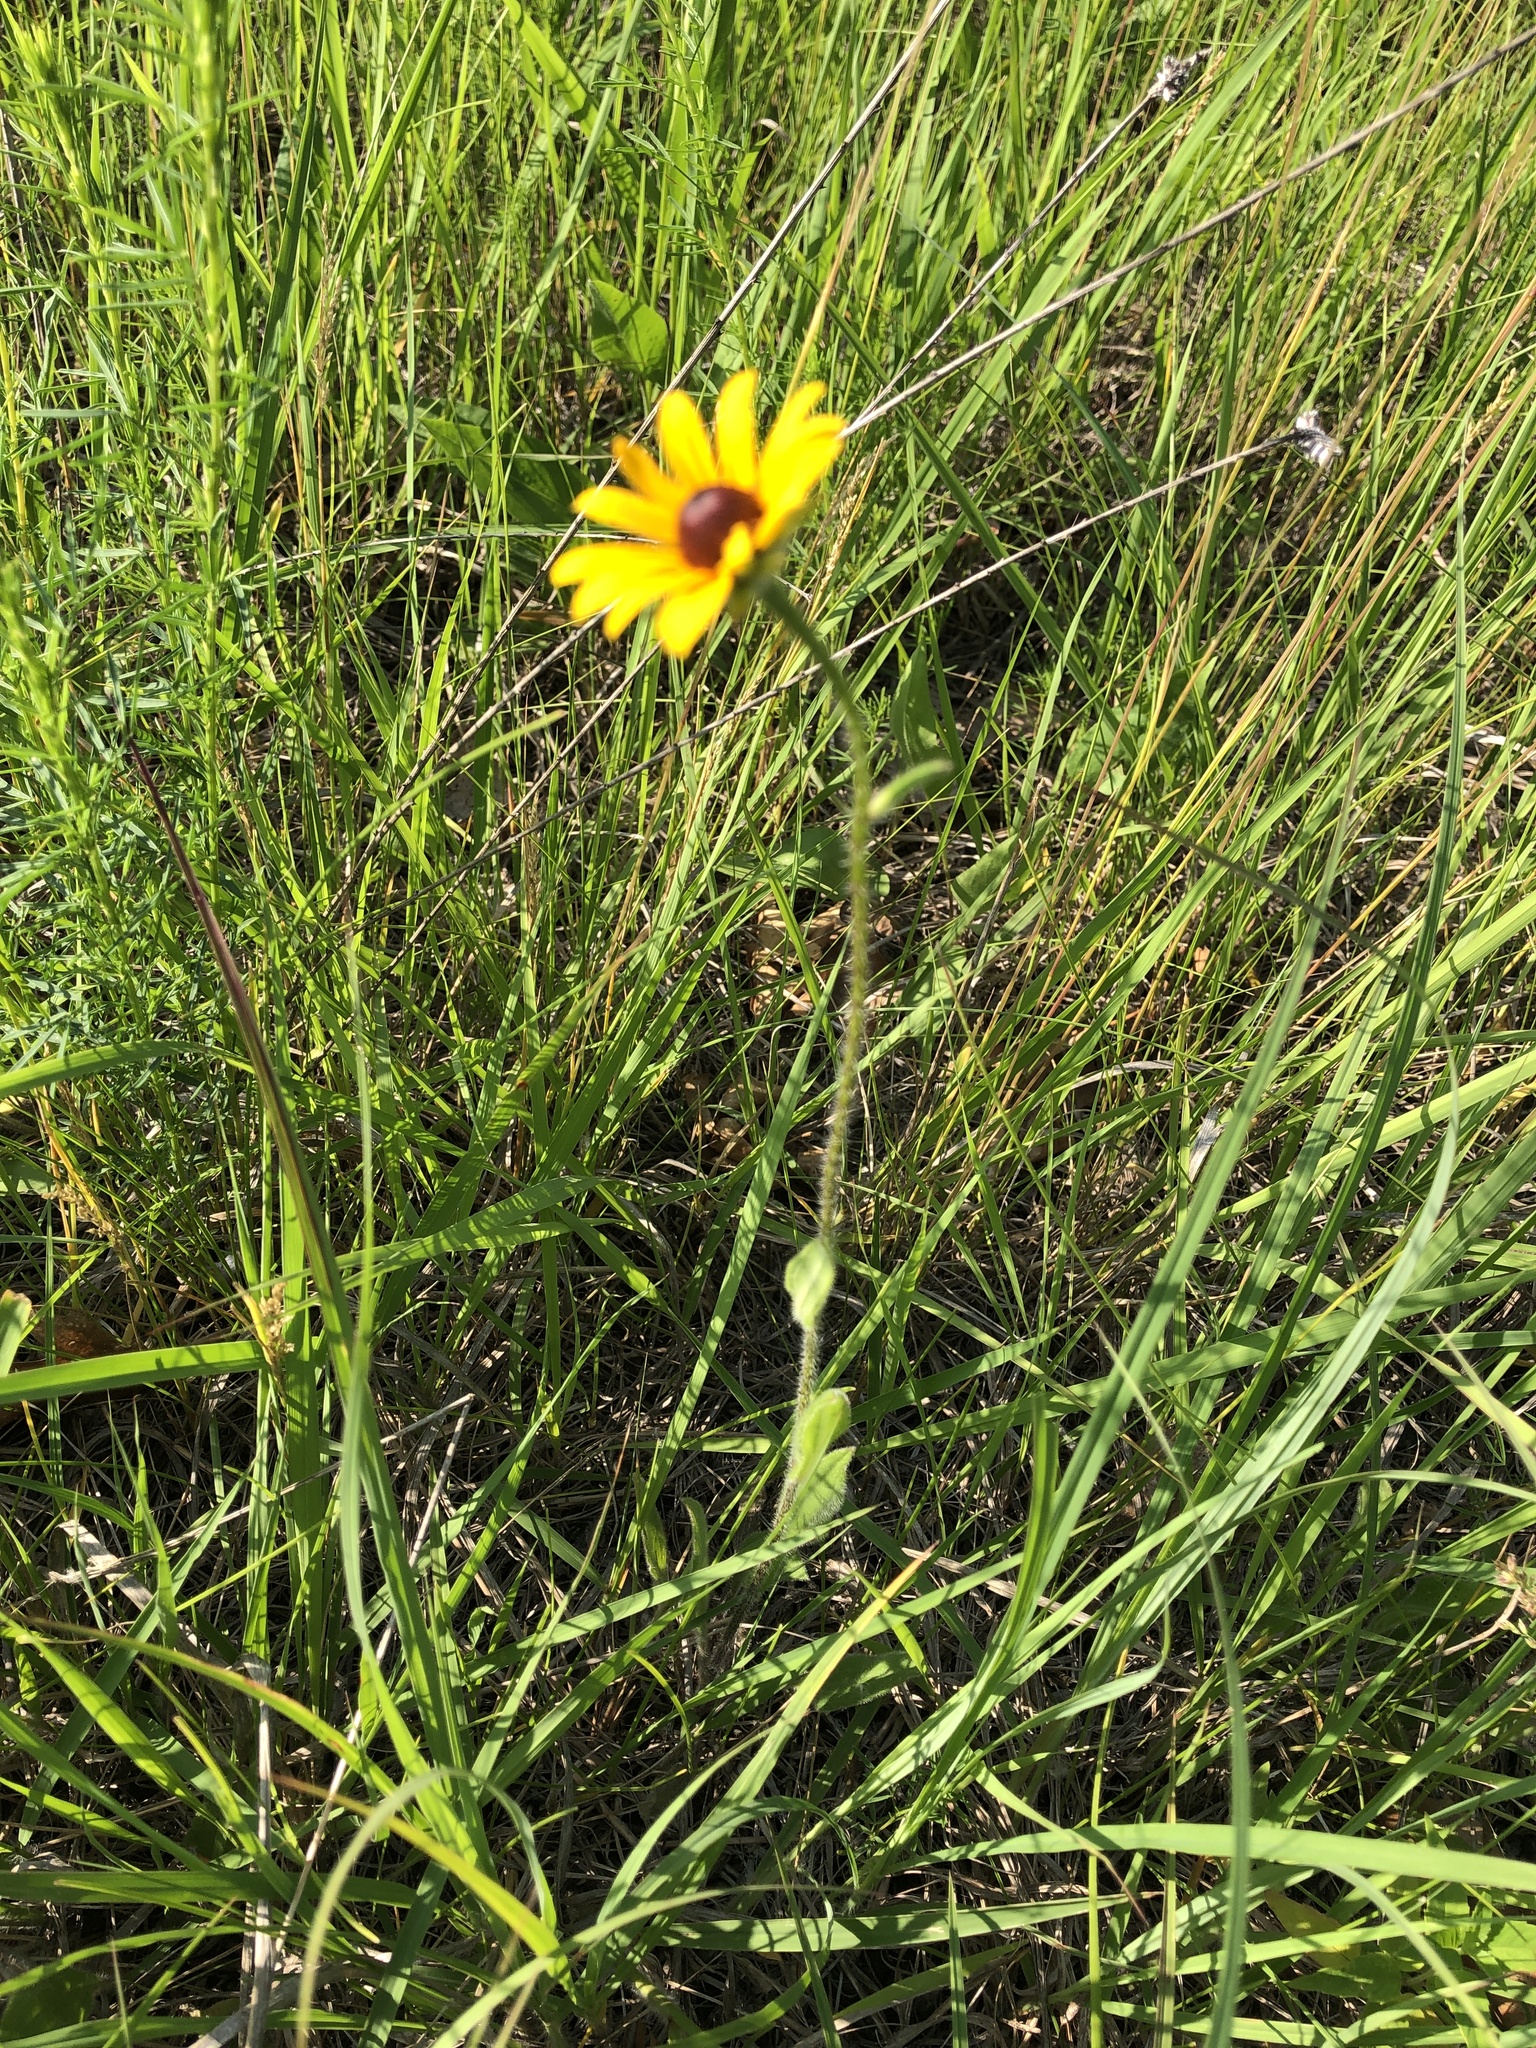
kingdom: Plantae
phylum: Tracheophyta
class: Magnoliopsida
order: Asterales
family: Asteraceae
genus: Rudbeckia
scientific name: Rudbeckia hirta
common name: Black-eyed-susan
